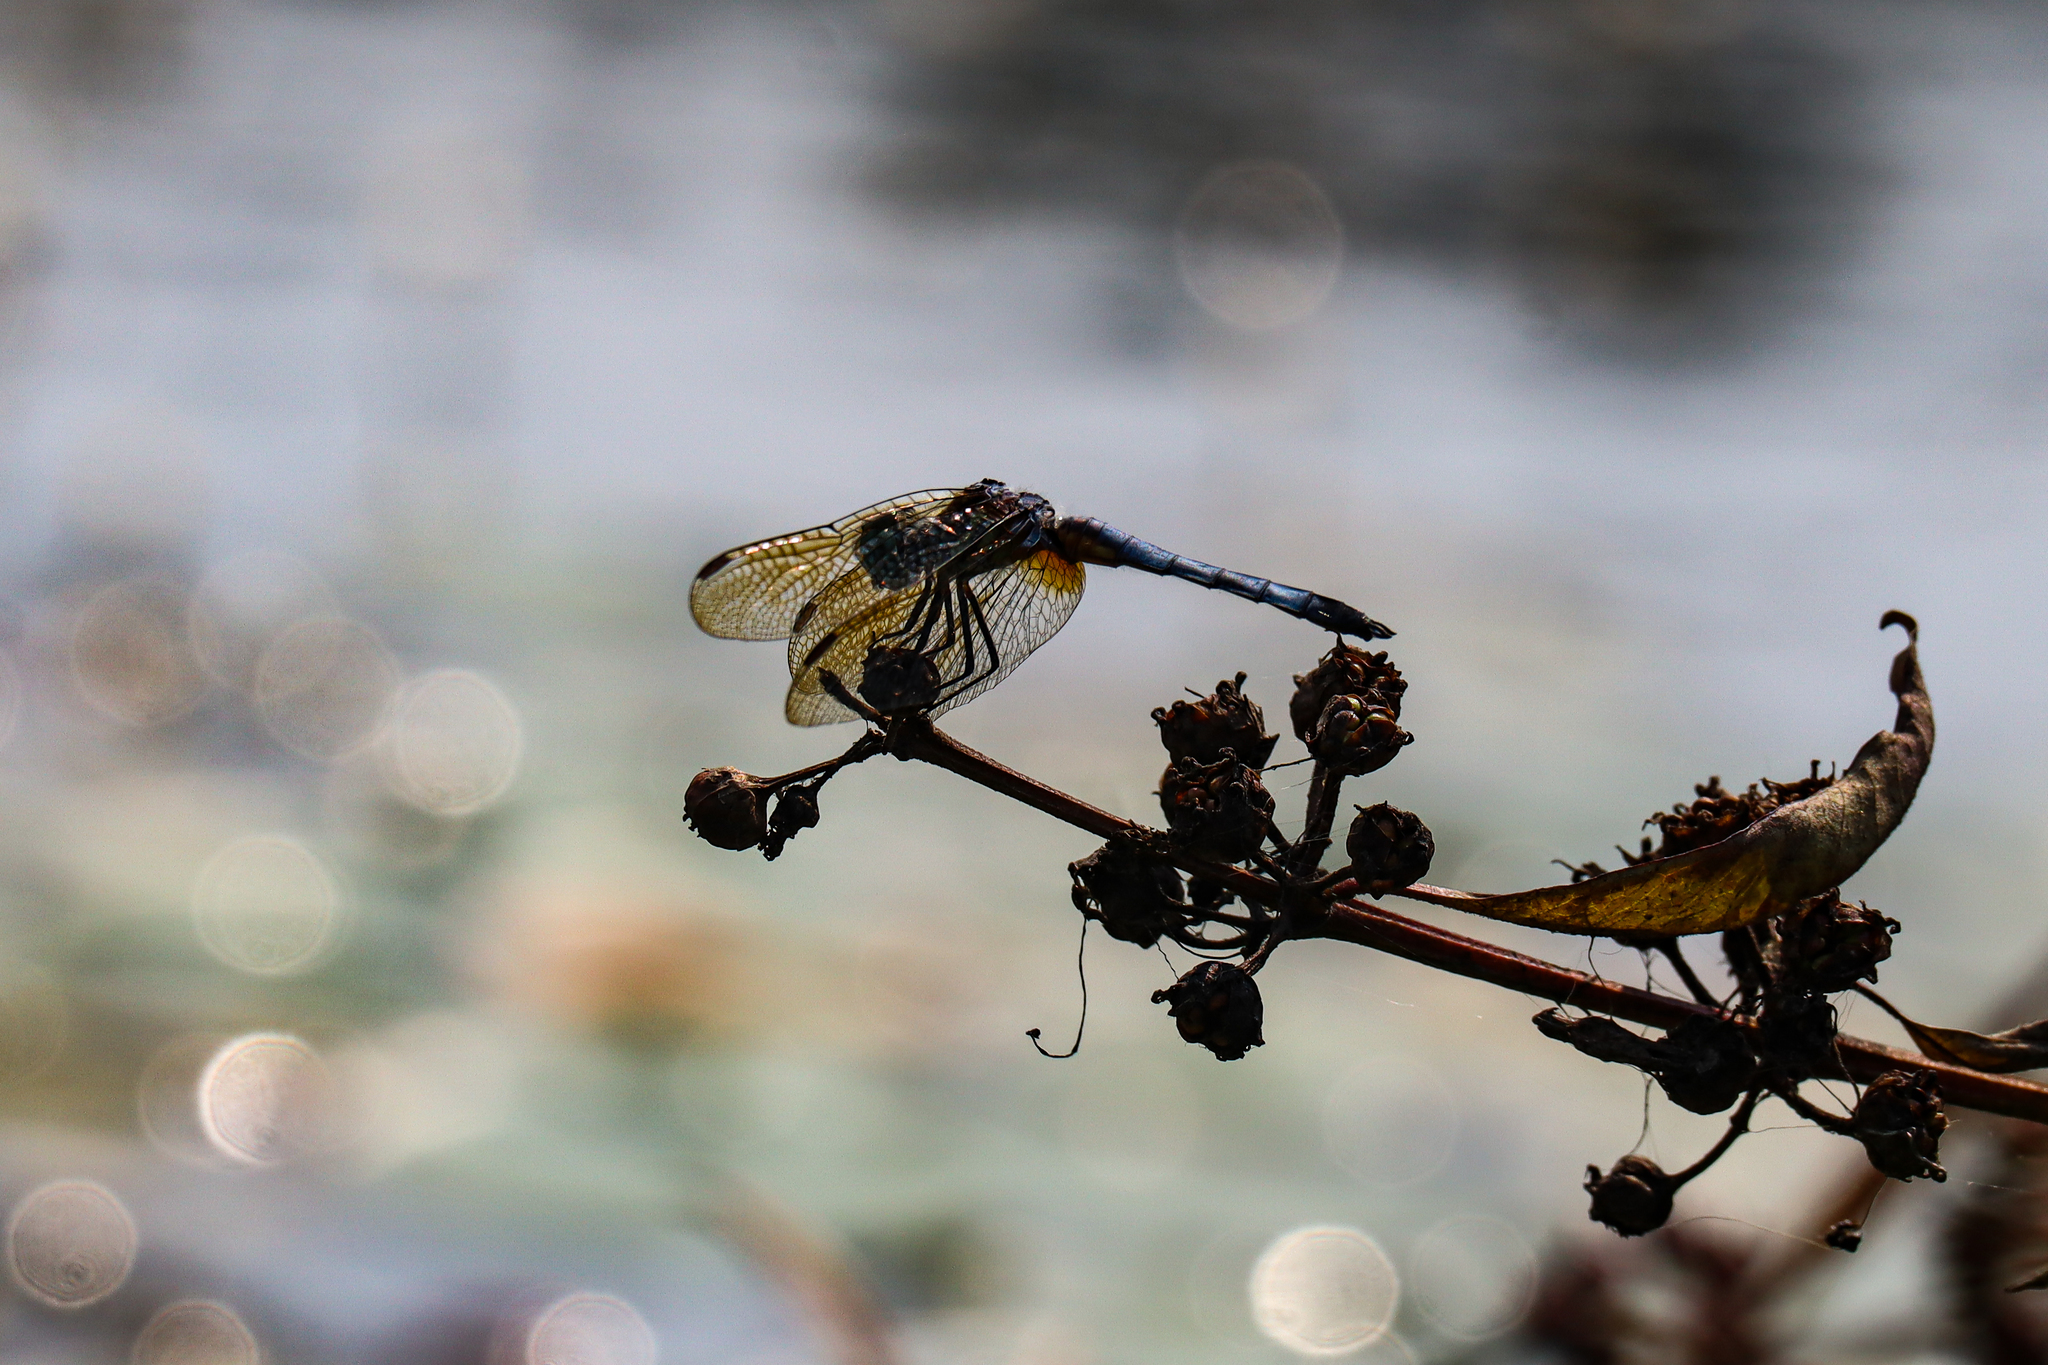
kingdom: Animalia
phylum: Arthropoda
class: Insecta
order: Odonata
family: Libellulidae
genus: Pachydiplax
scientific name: Pachydiplax longipennis
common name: Blue dasher
